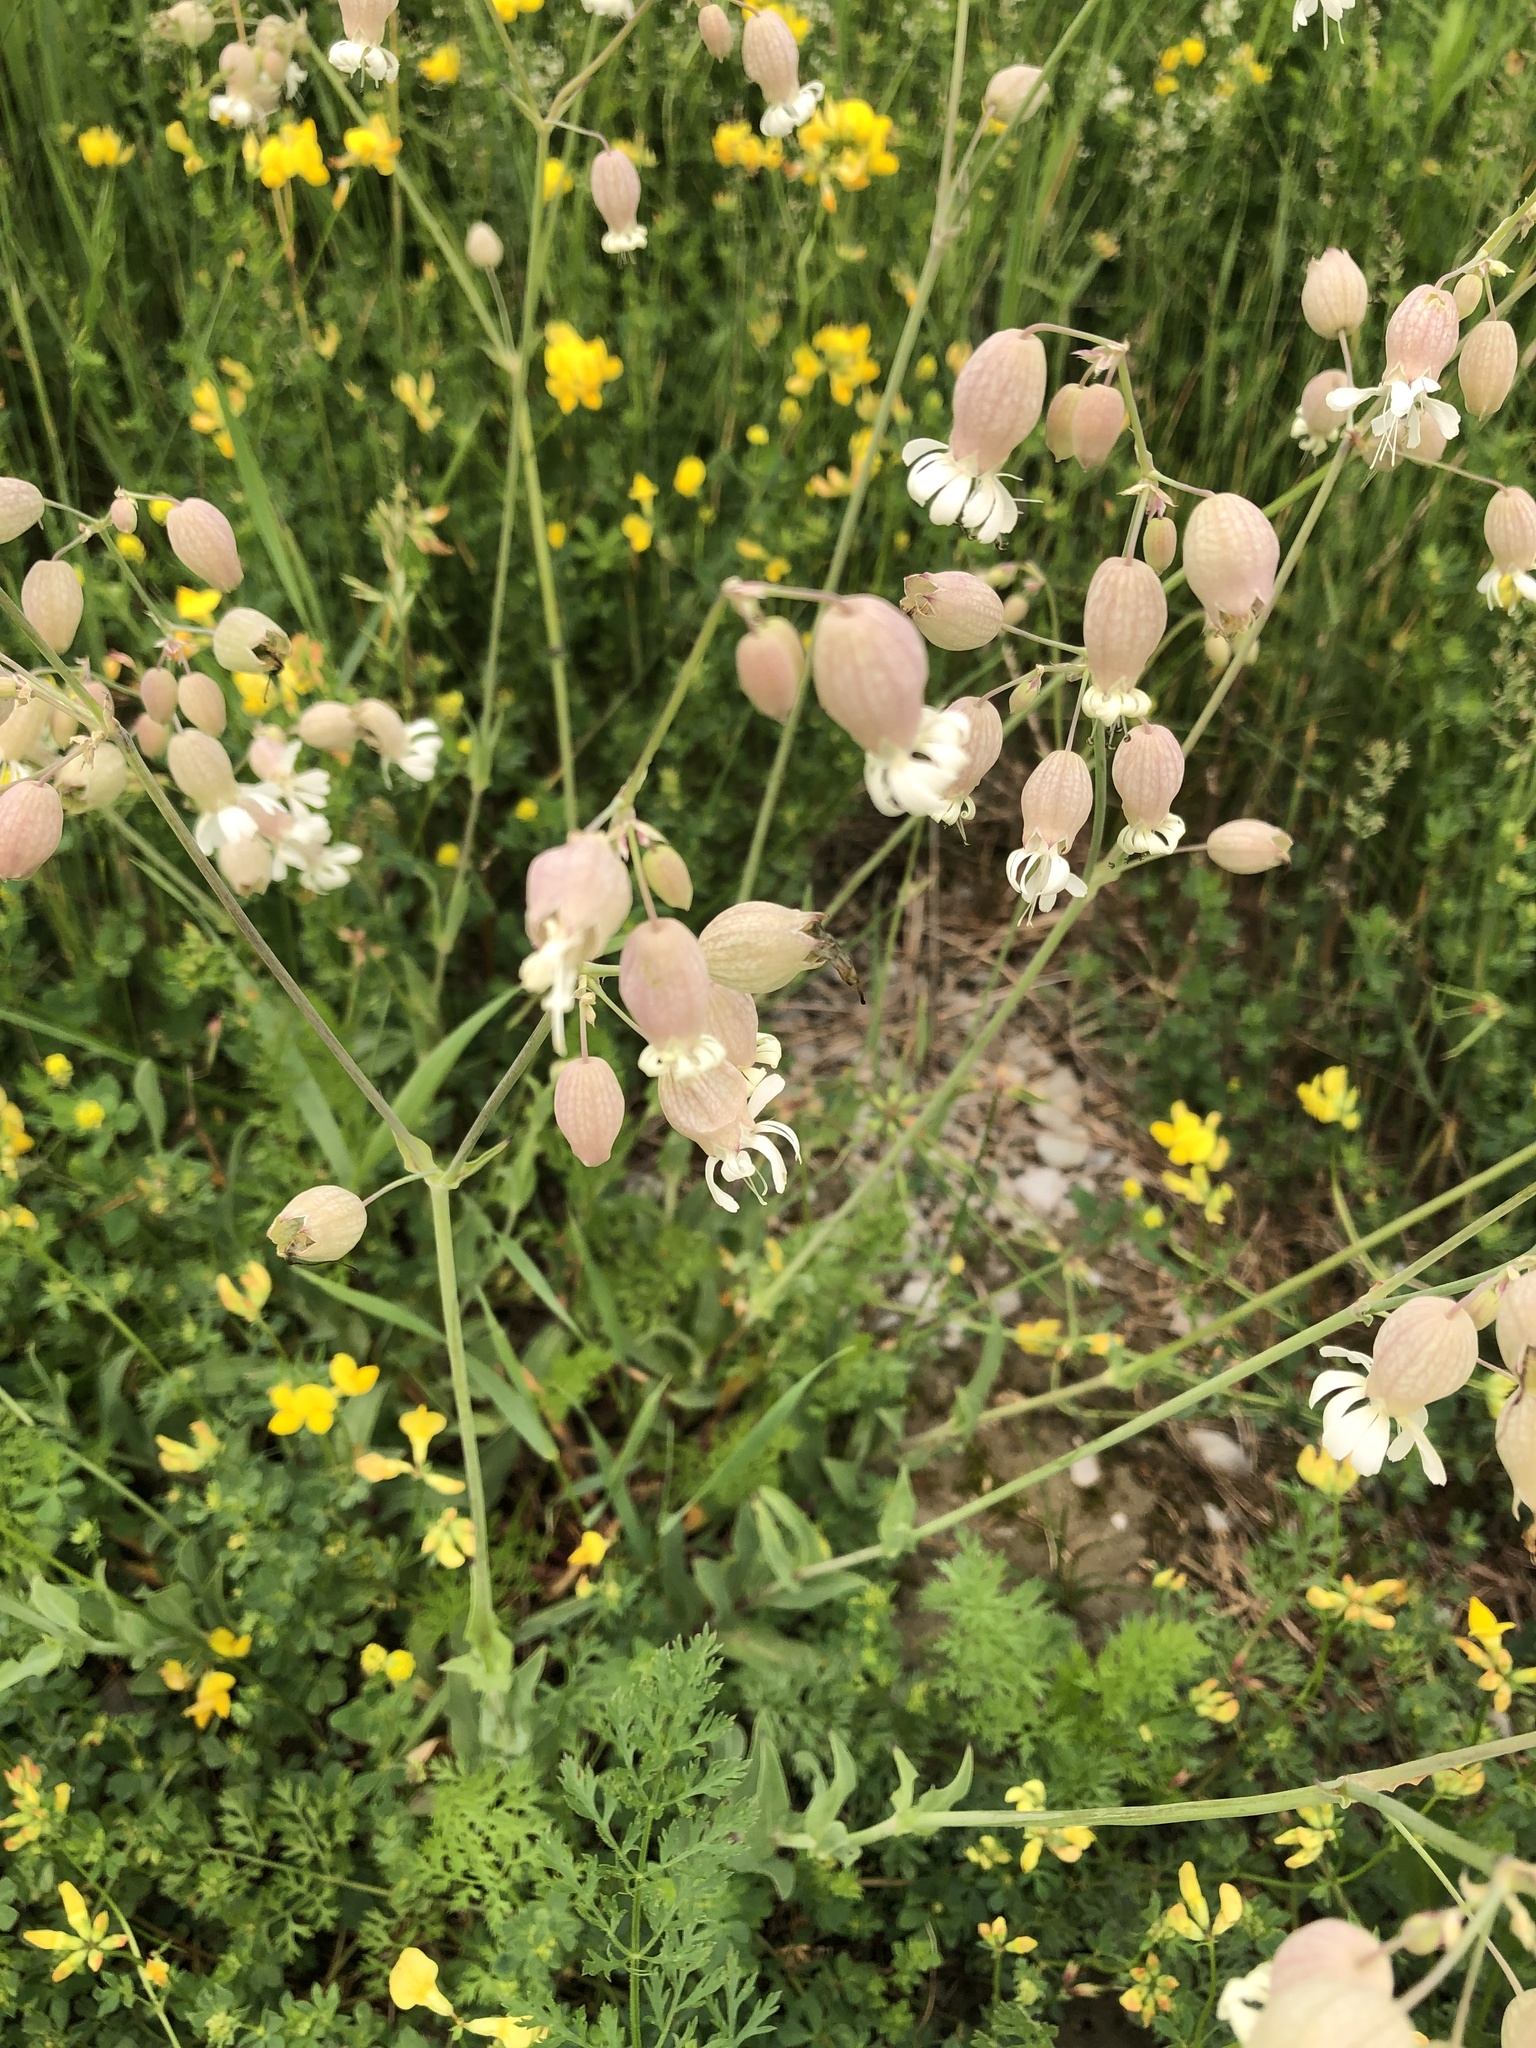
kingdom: Plantae
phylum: Tracheophyta
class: Magnoliopsida
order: Caryophyllales
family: Caryophyllaceae
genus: Silene
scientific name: Silene vulgaris
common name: Bladder campion
